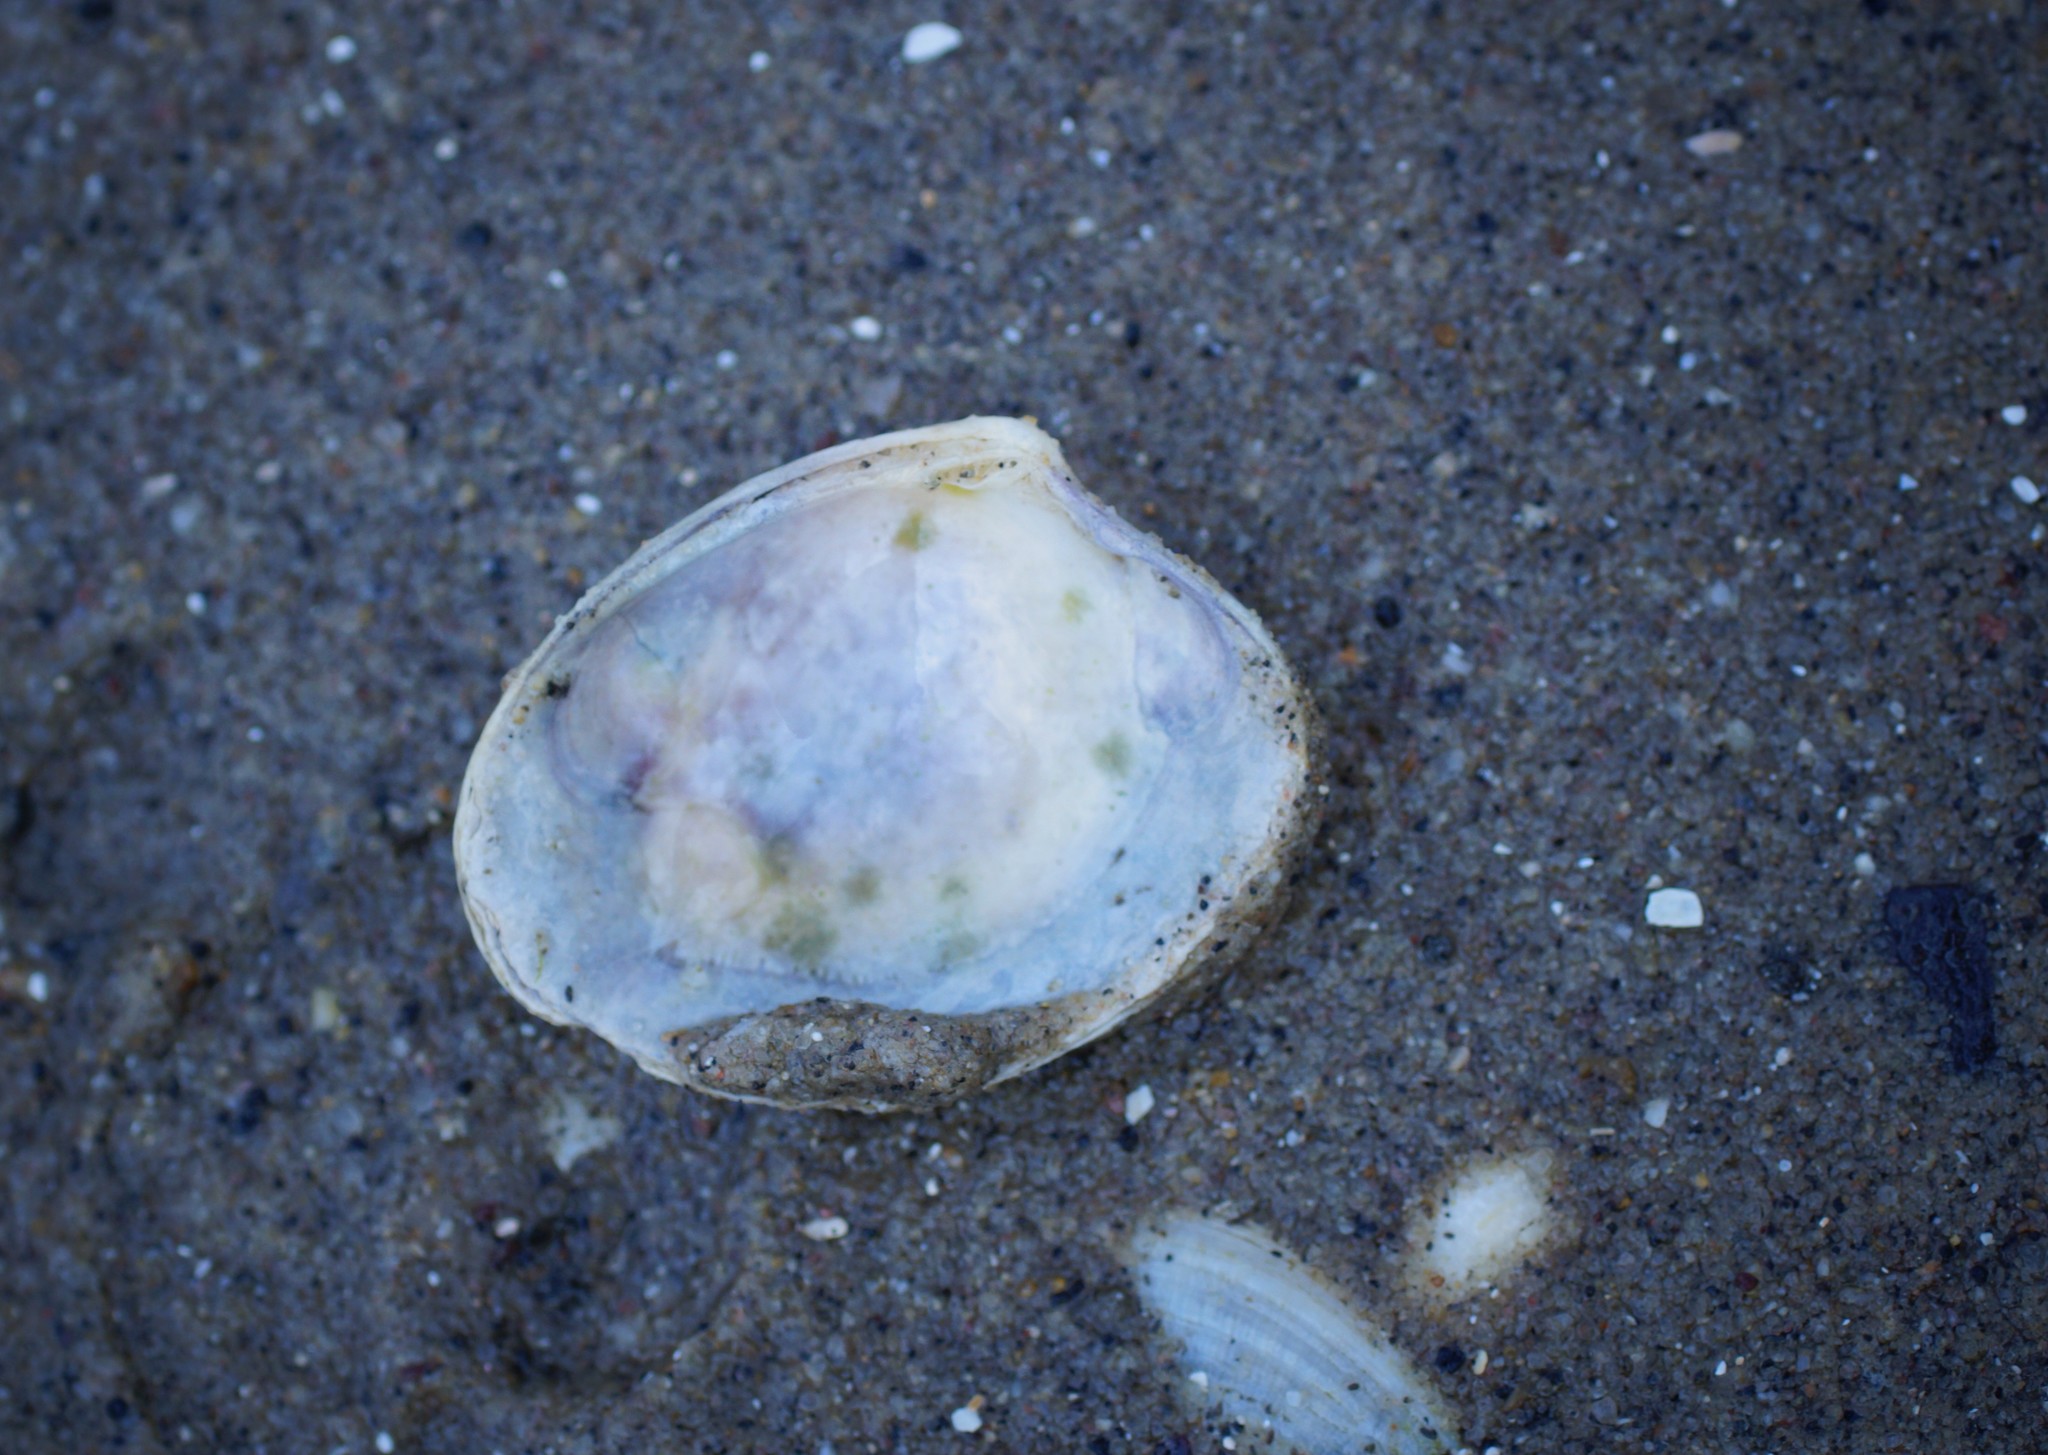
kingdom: Animalia
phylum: Mollusca
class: Bivalvia
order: Venerida
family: Veneridae
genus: Katelysia
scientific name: Katelysia rhytiphora
